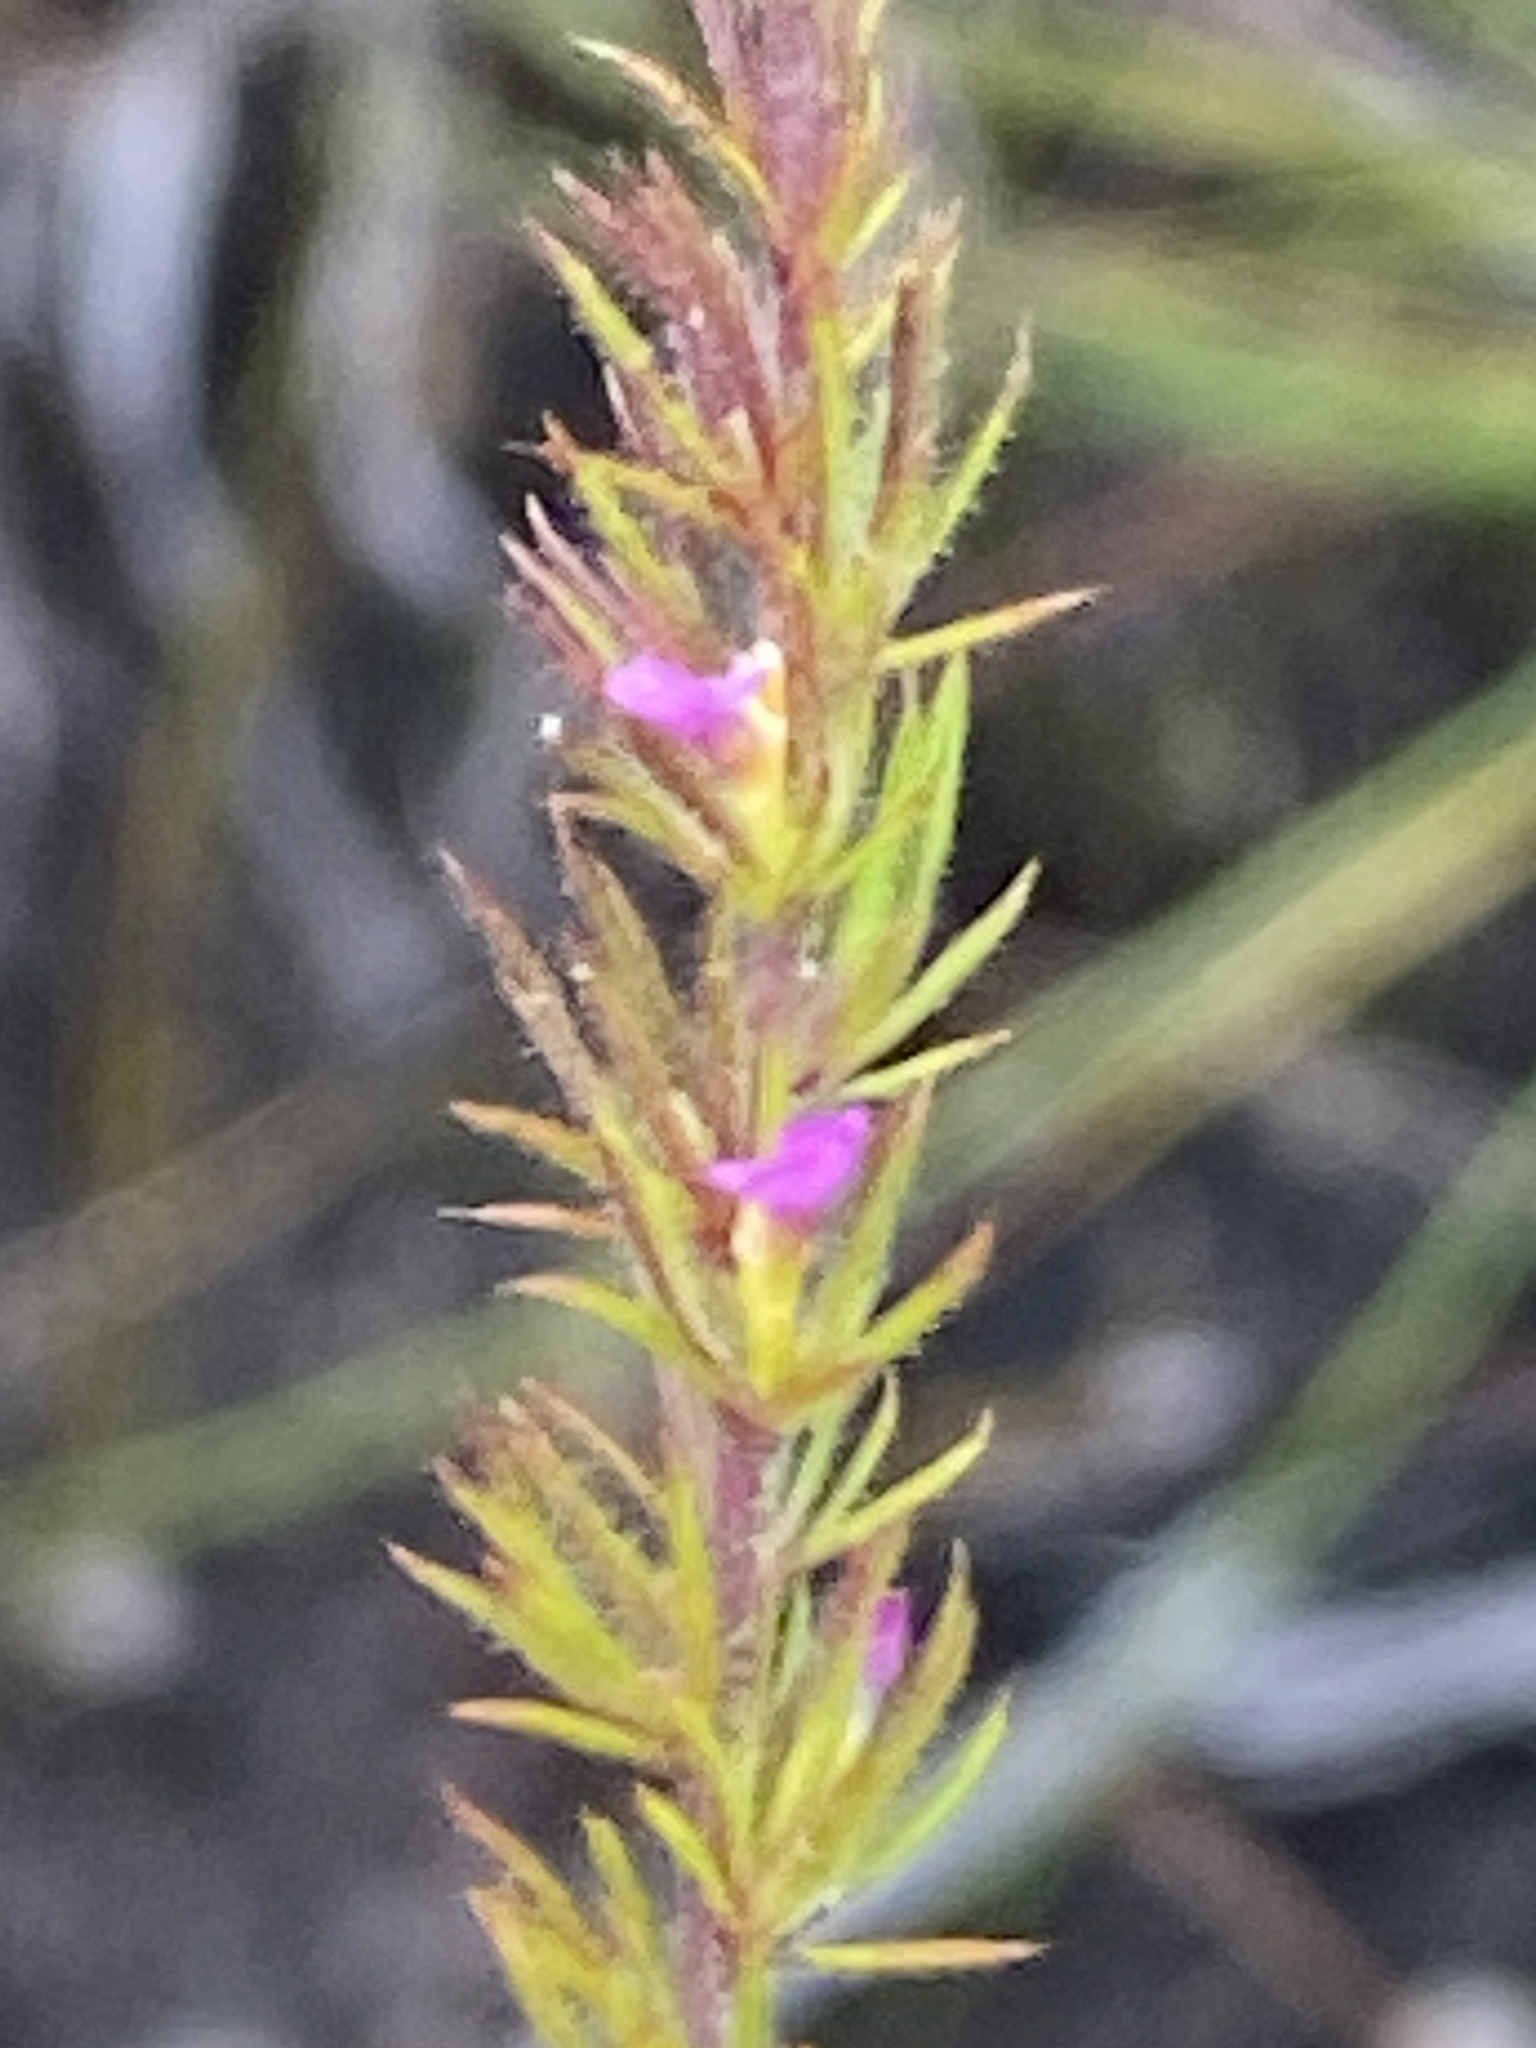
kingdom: Plantae
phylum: Tracheophyta
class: Magnoliopsida
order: Fabales
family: Polygalaceae
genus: Muraltia
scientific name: Muraltia muirii
